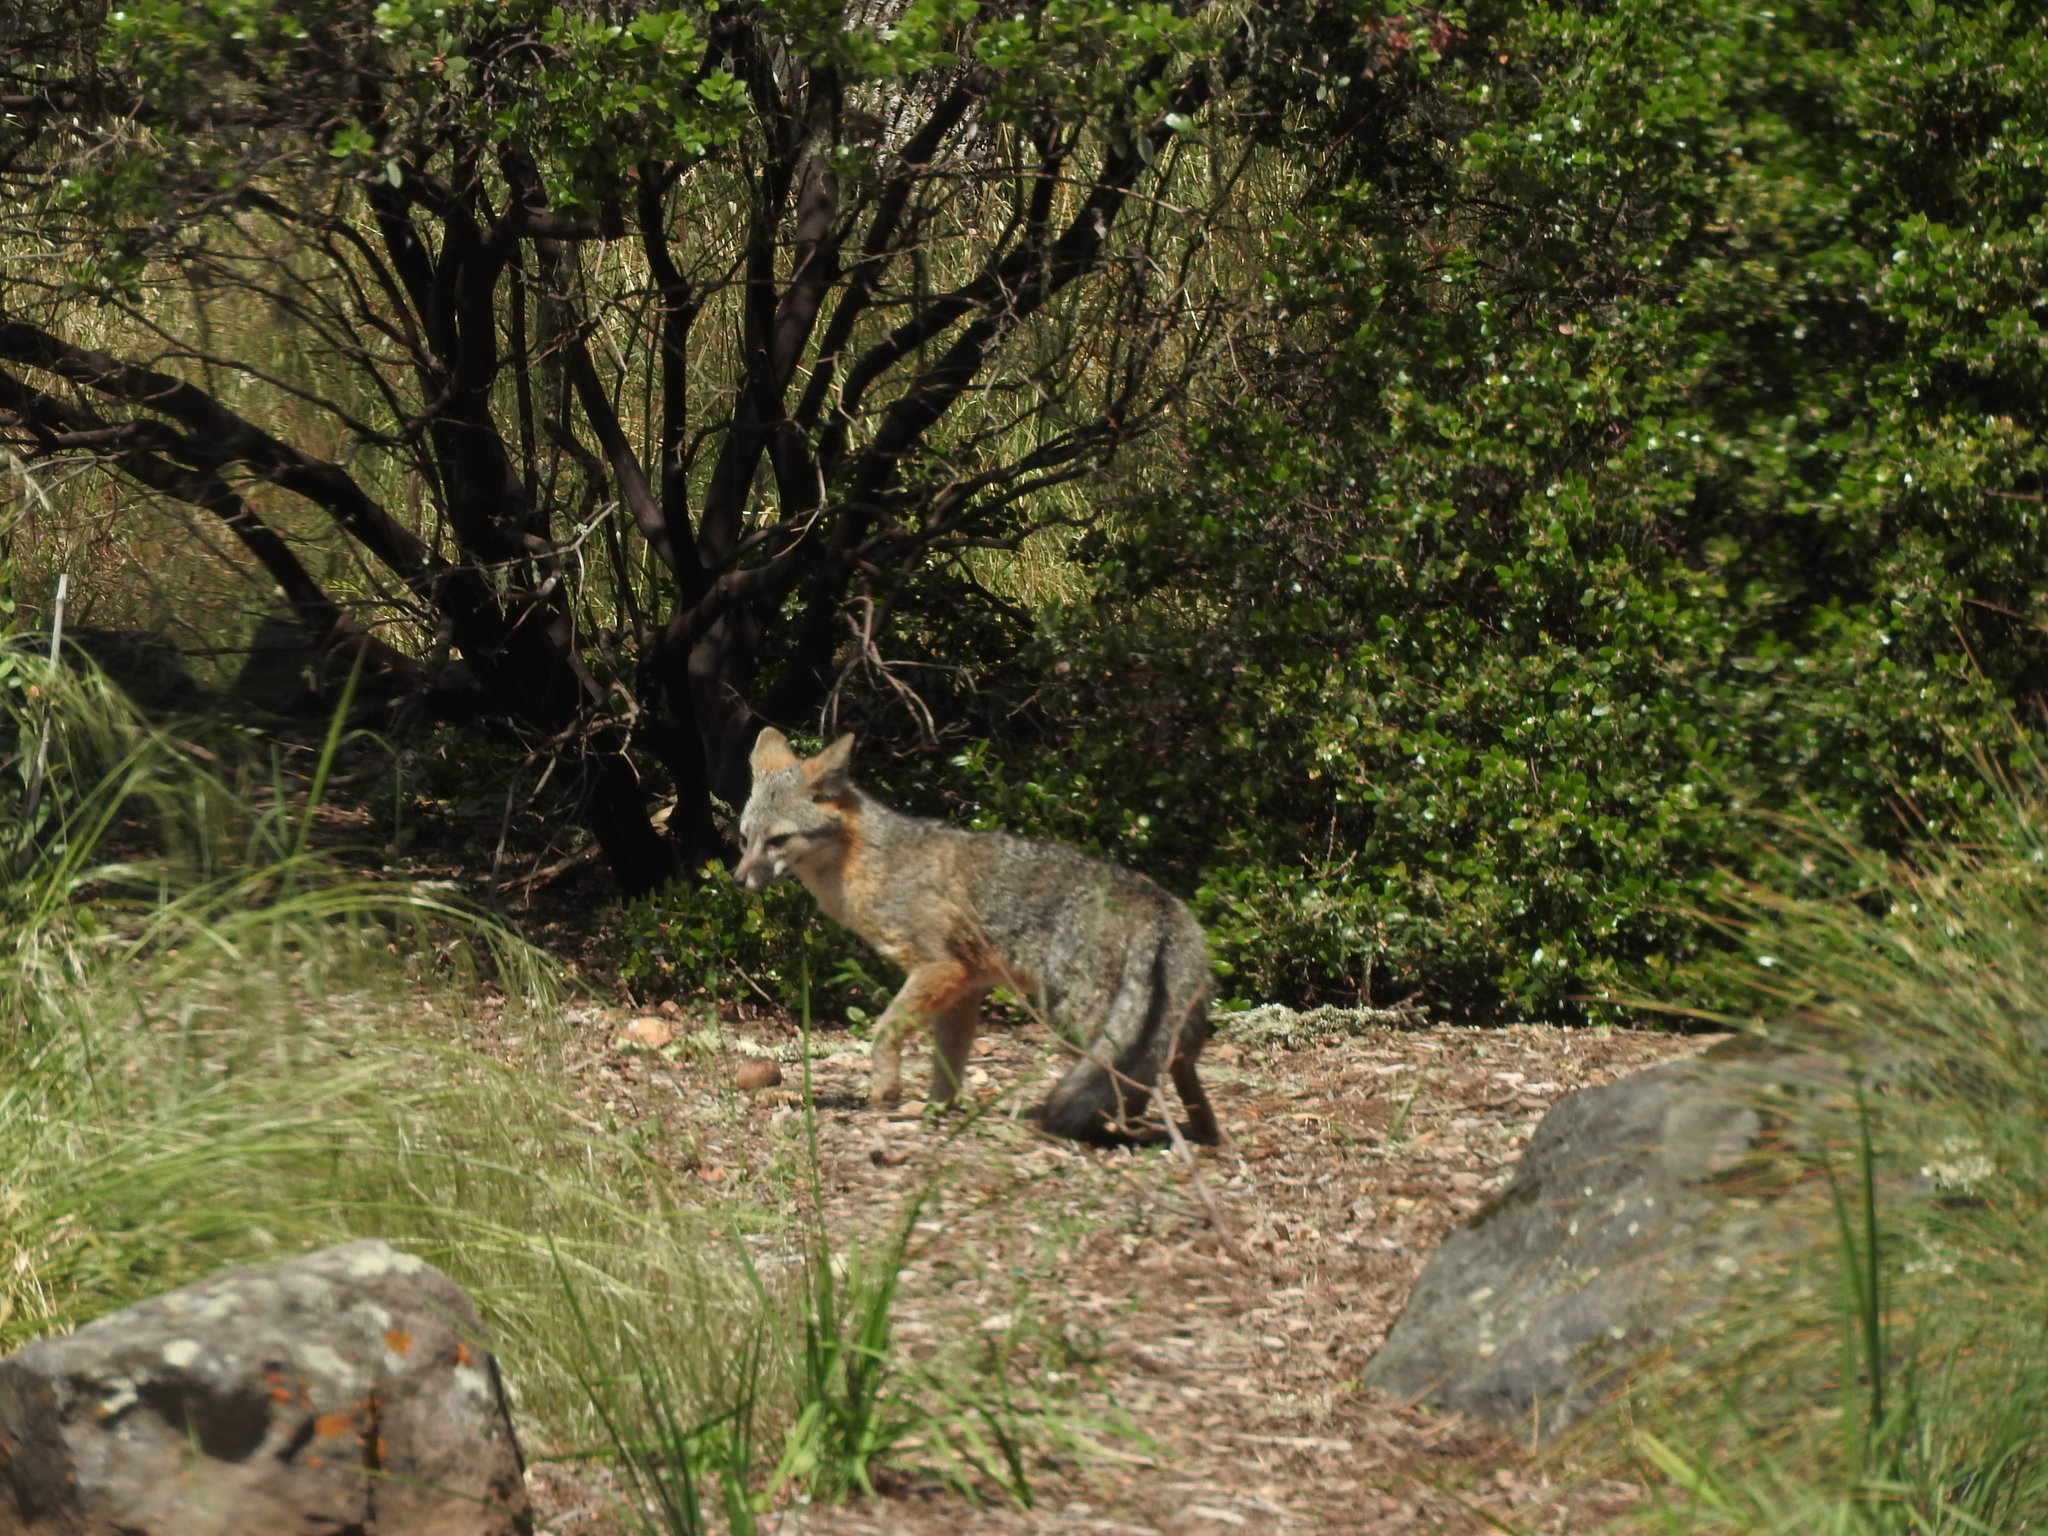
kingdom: Animalia
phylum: Chordata
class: Mammalia
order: Carnivora
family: Canidae
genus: Urocyon
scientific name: Urocyon cinereoargenteus
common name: Gray fox
